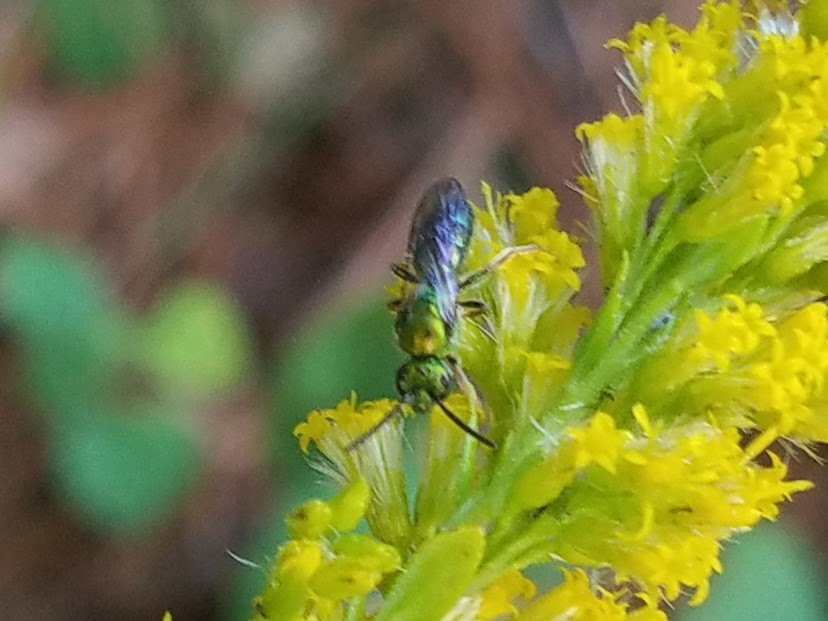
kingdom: Animalia
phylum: Arthropoda
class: Insecta
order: Hymenoptera
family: Halictidae
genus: Augochlora
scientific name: Augochlora pura
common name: Pure green sweat bee
